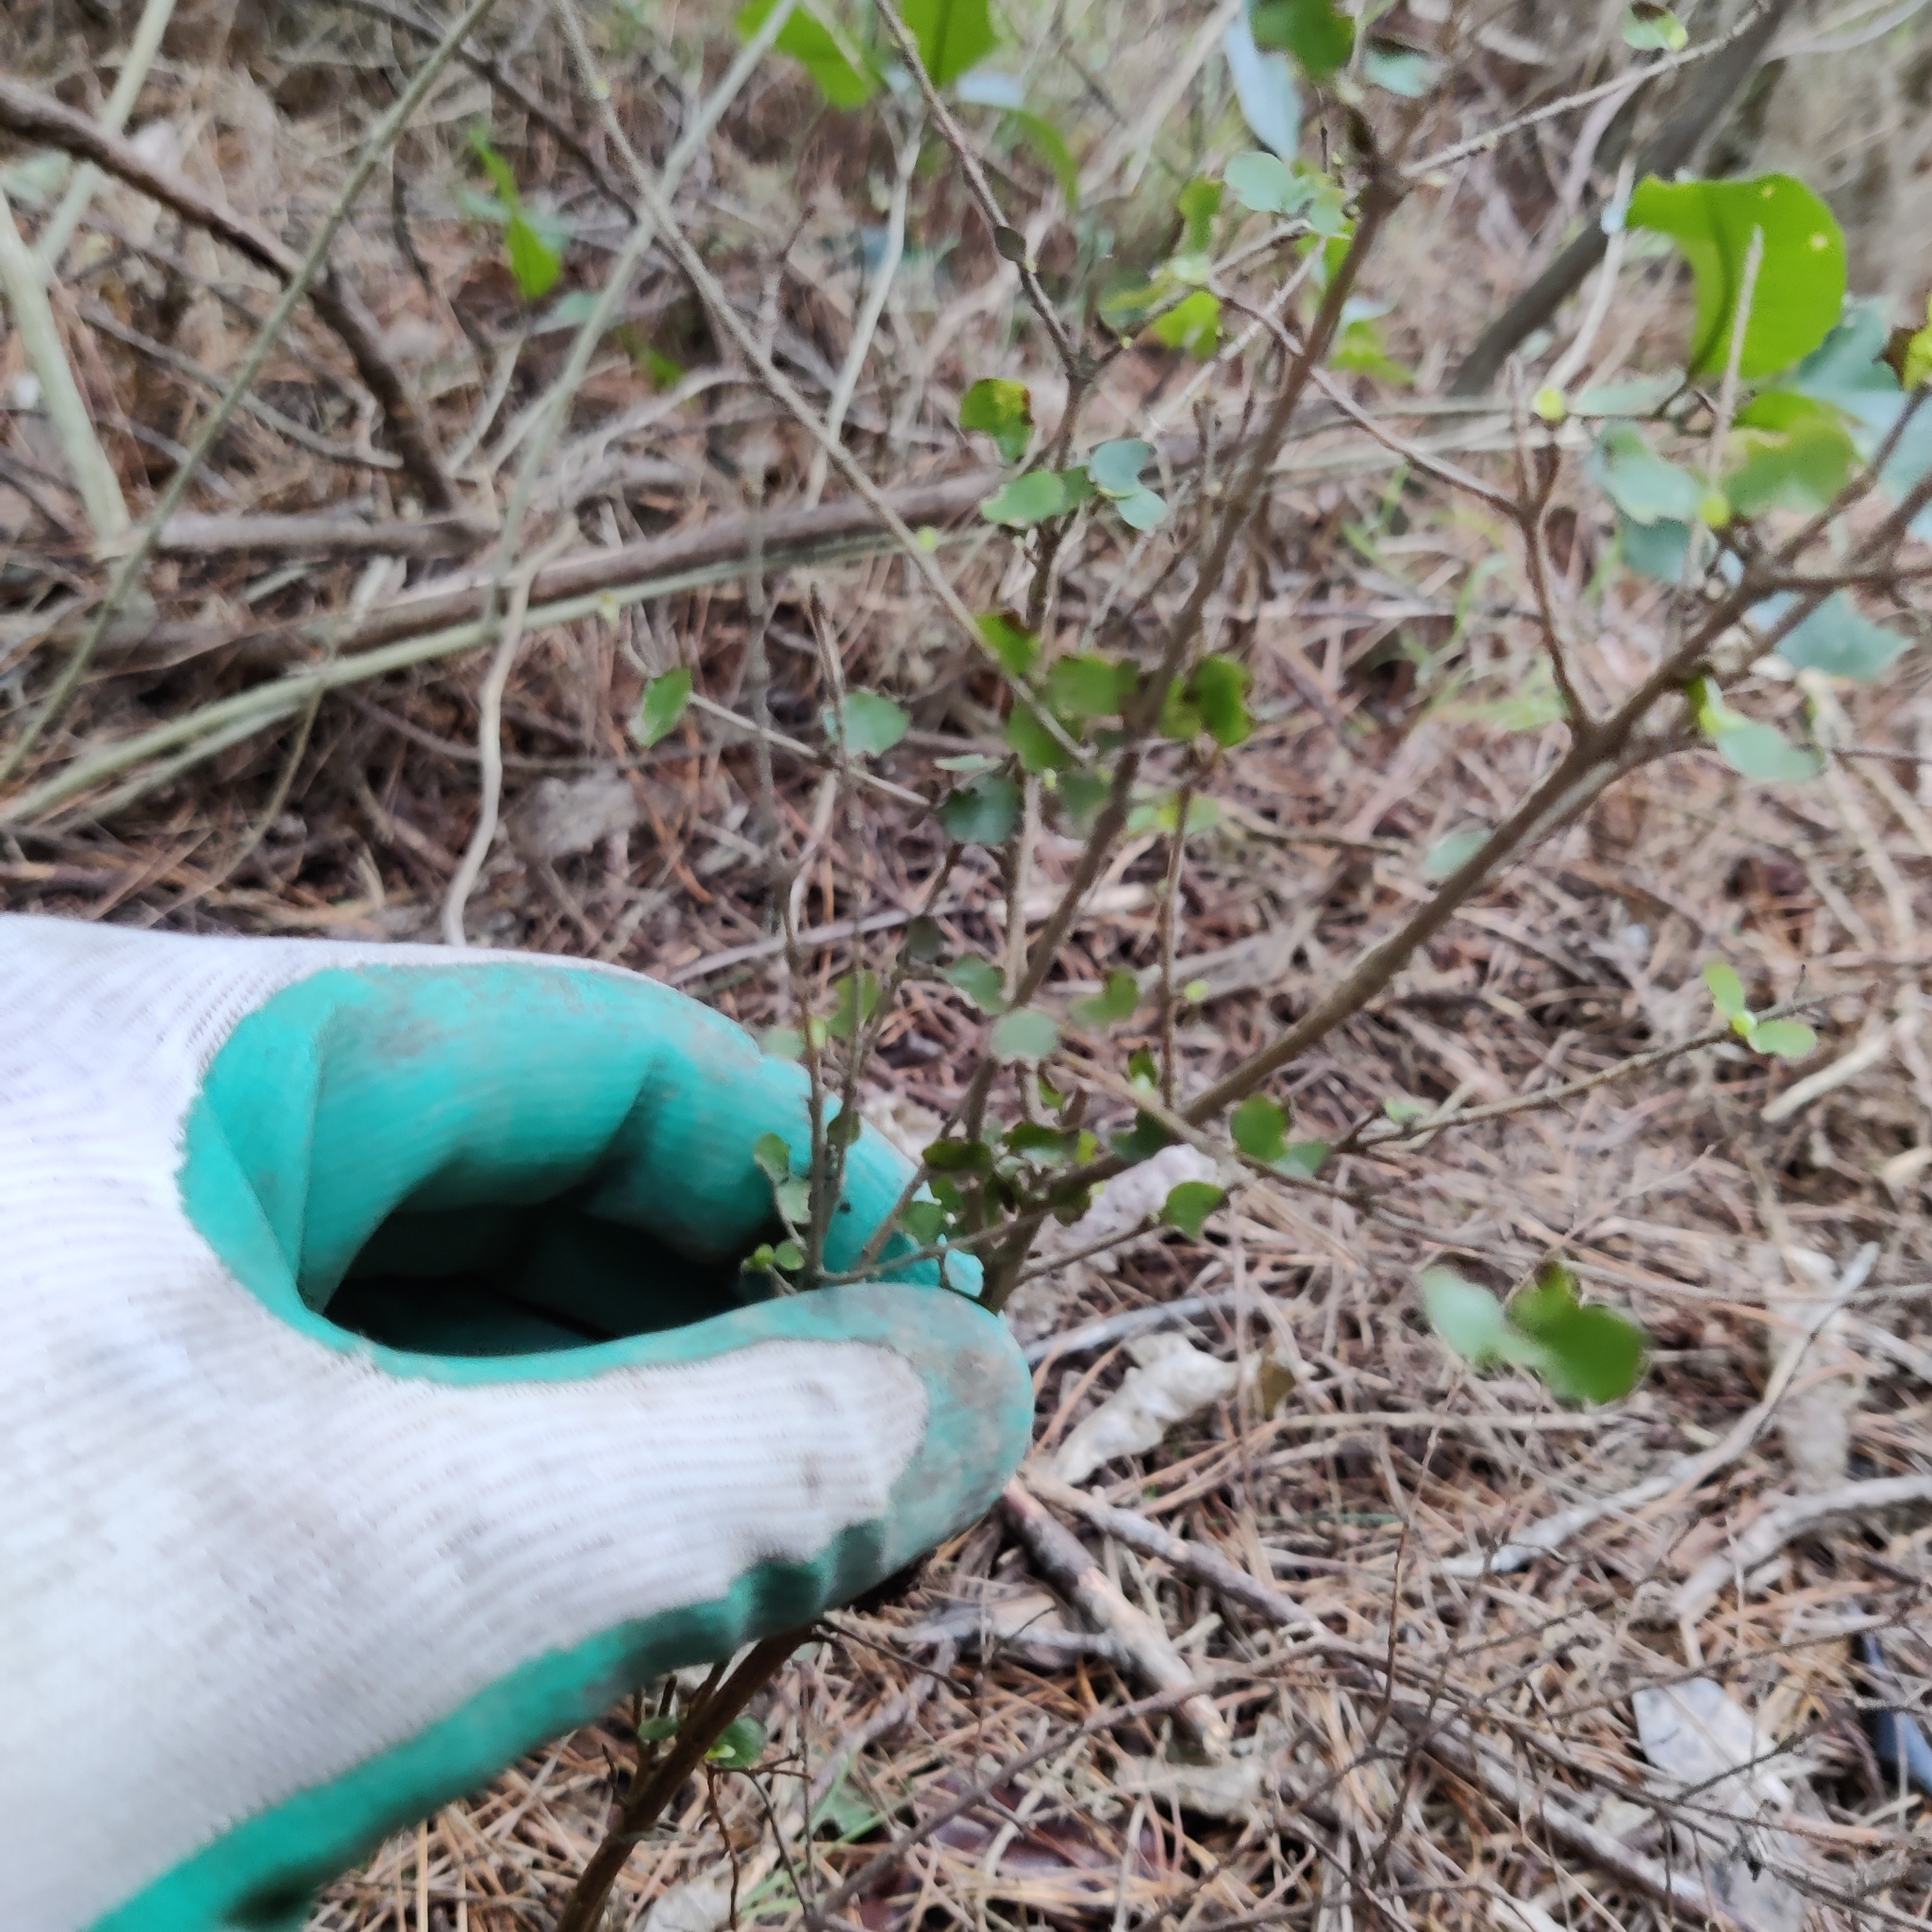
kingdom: Plantae
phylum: Tracheophyta
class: Magnoliopsida
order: Gentianales
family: Rubiaceae
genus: Coprosma
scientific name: Coprosma rhamnoides
